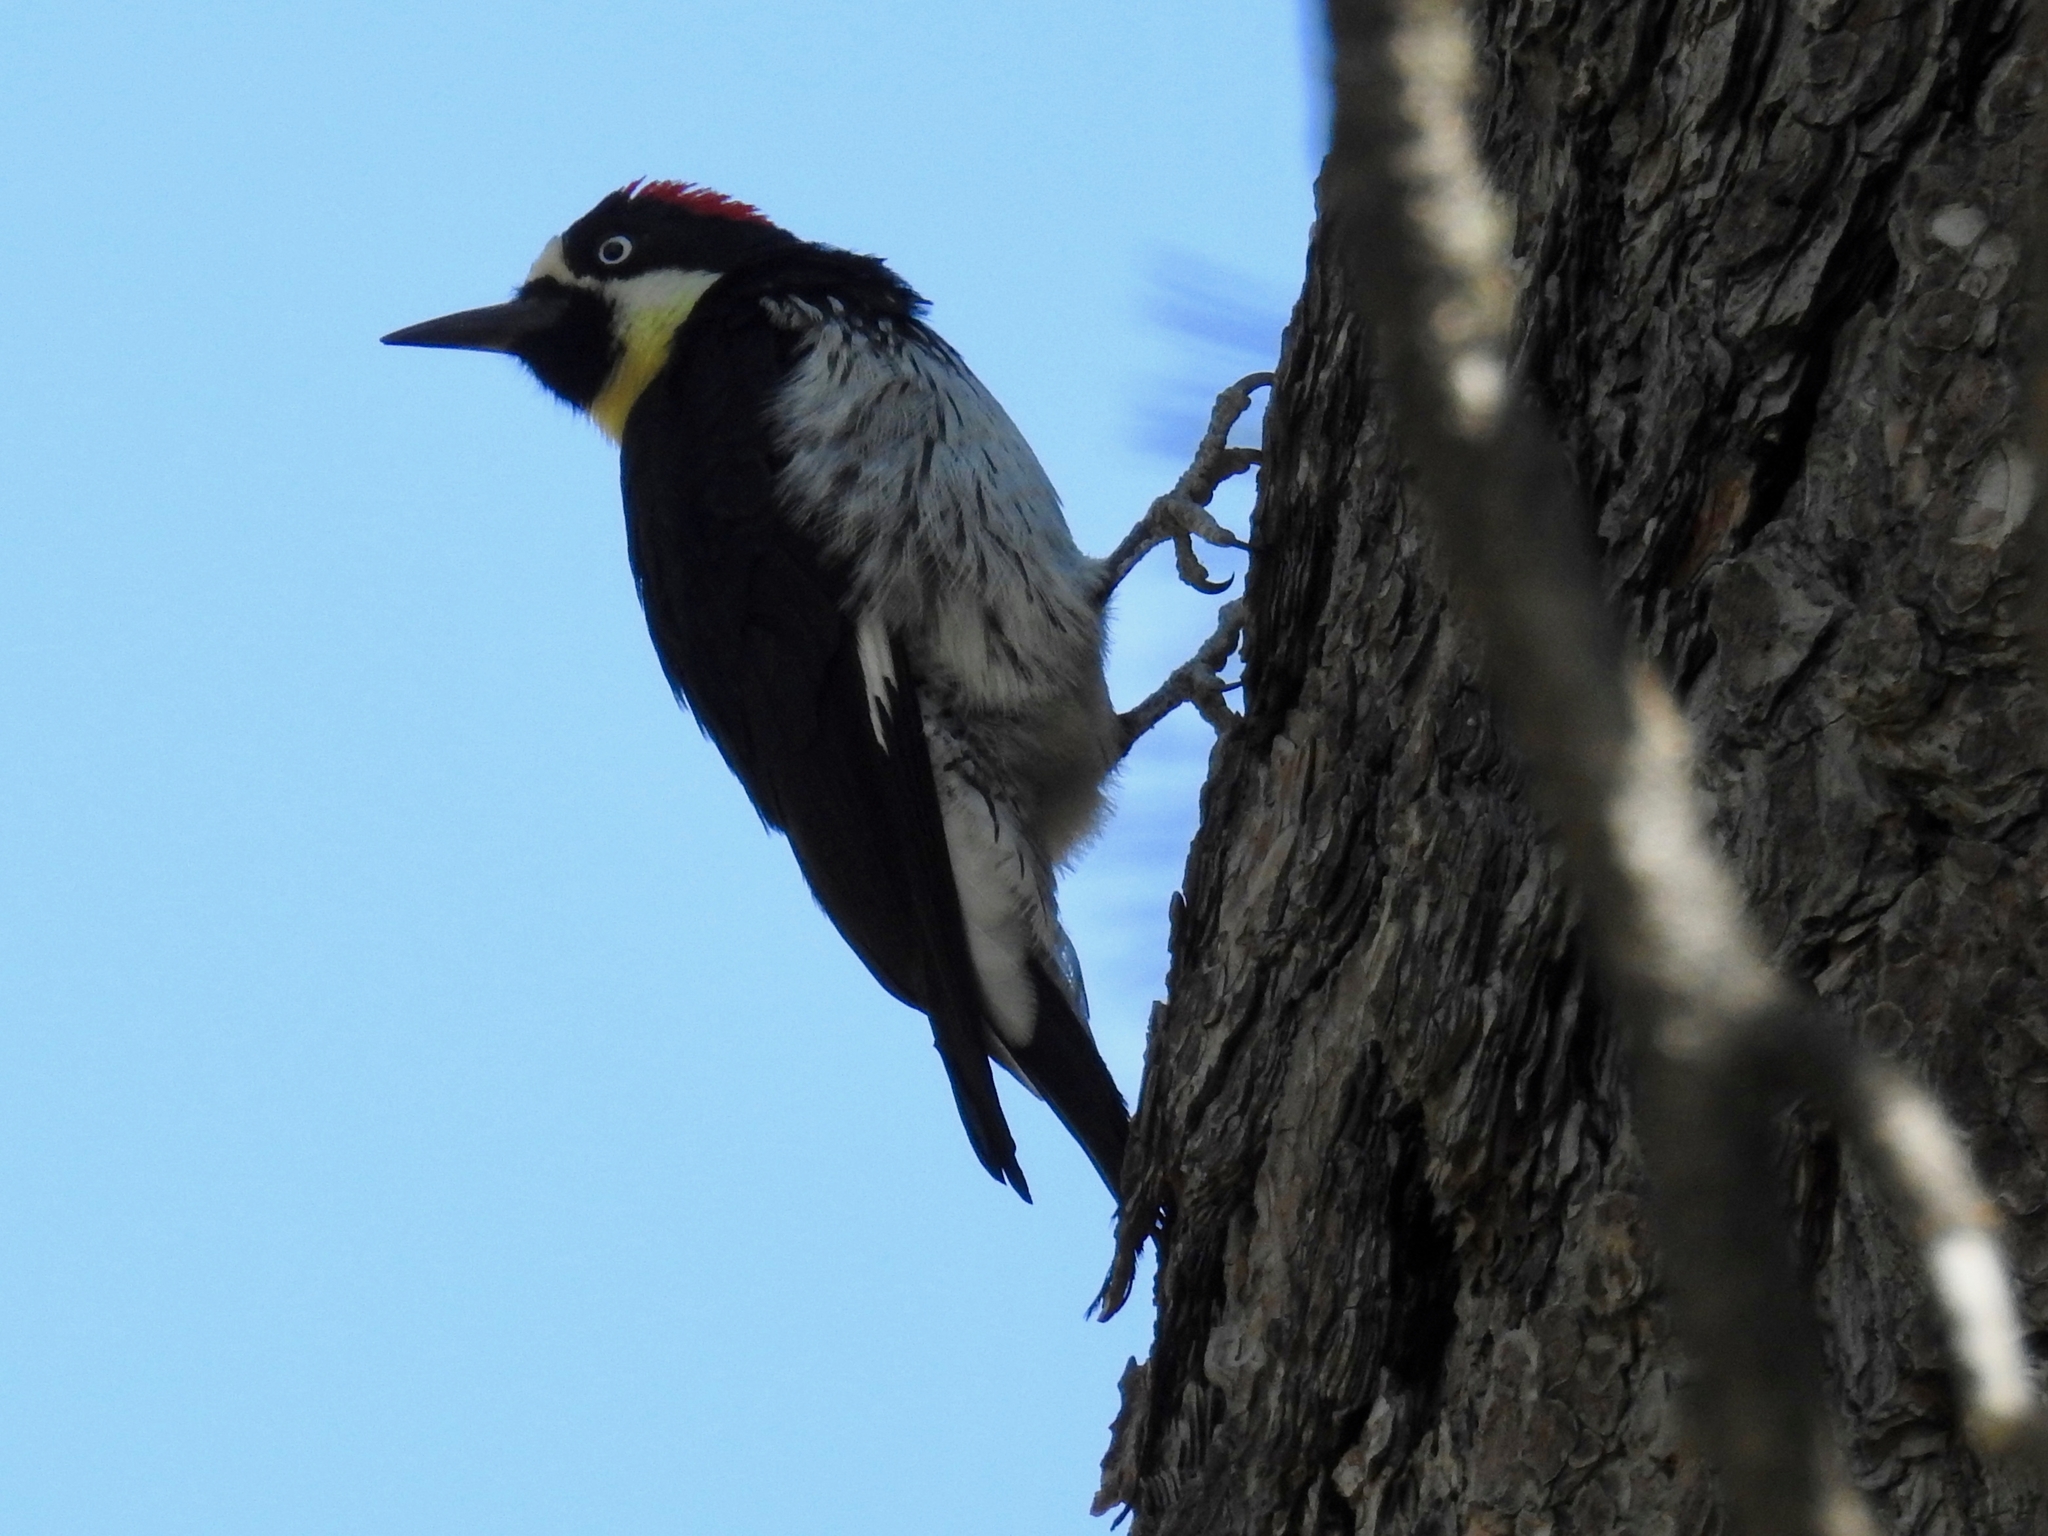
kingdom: Animalia
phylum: Chordata
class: Aves
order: Piciformes
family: Picidae
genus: Melanerpes
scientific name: Melanerpes formicivorus
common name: Acorn woodpecker
